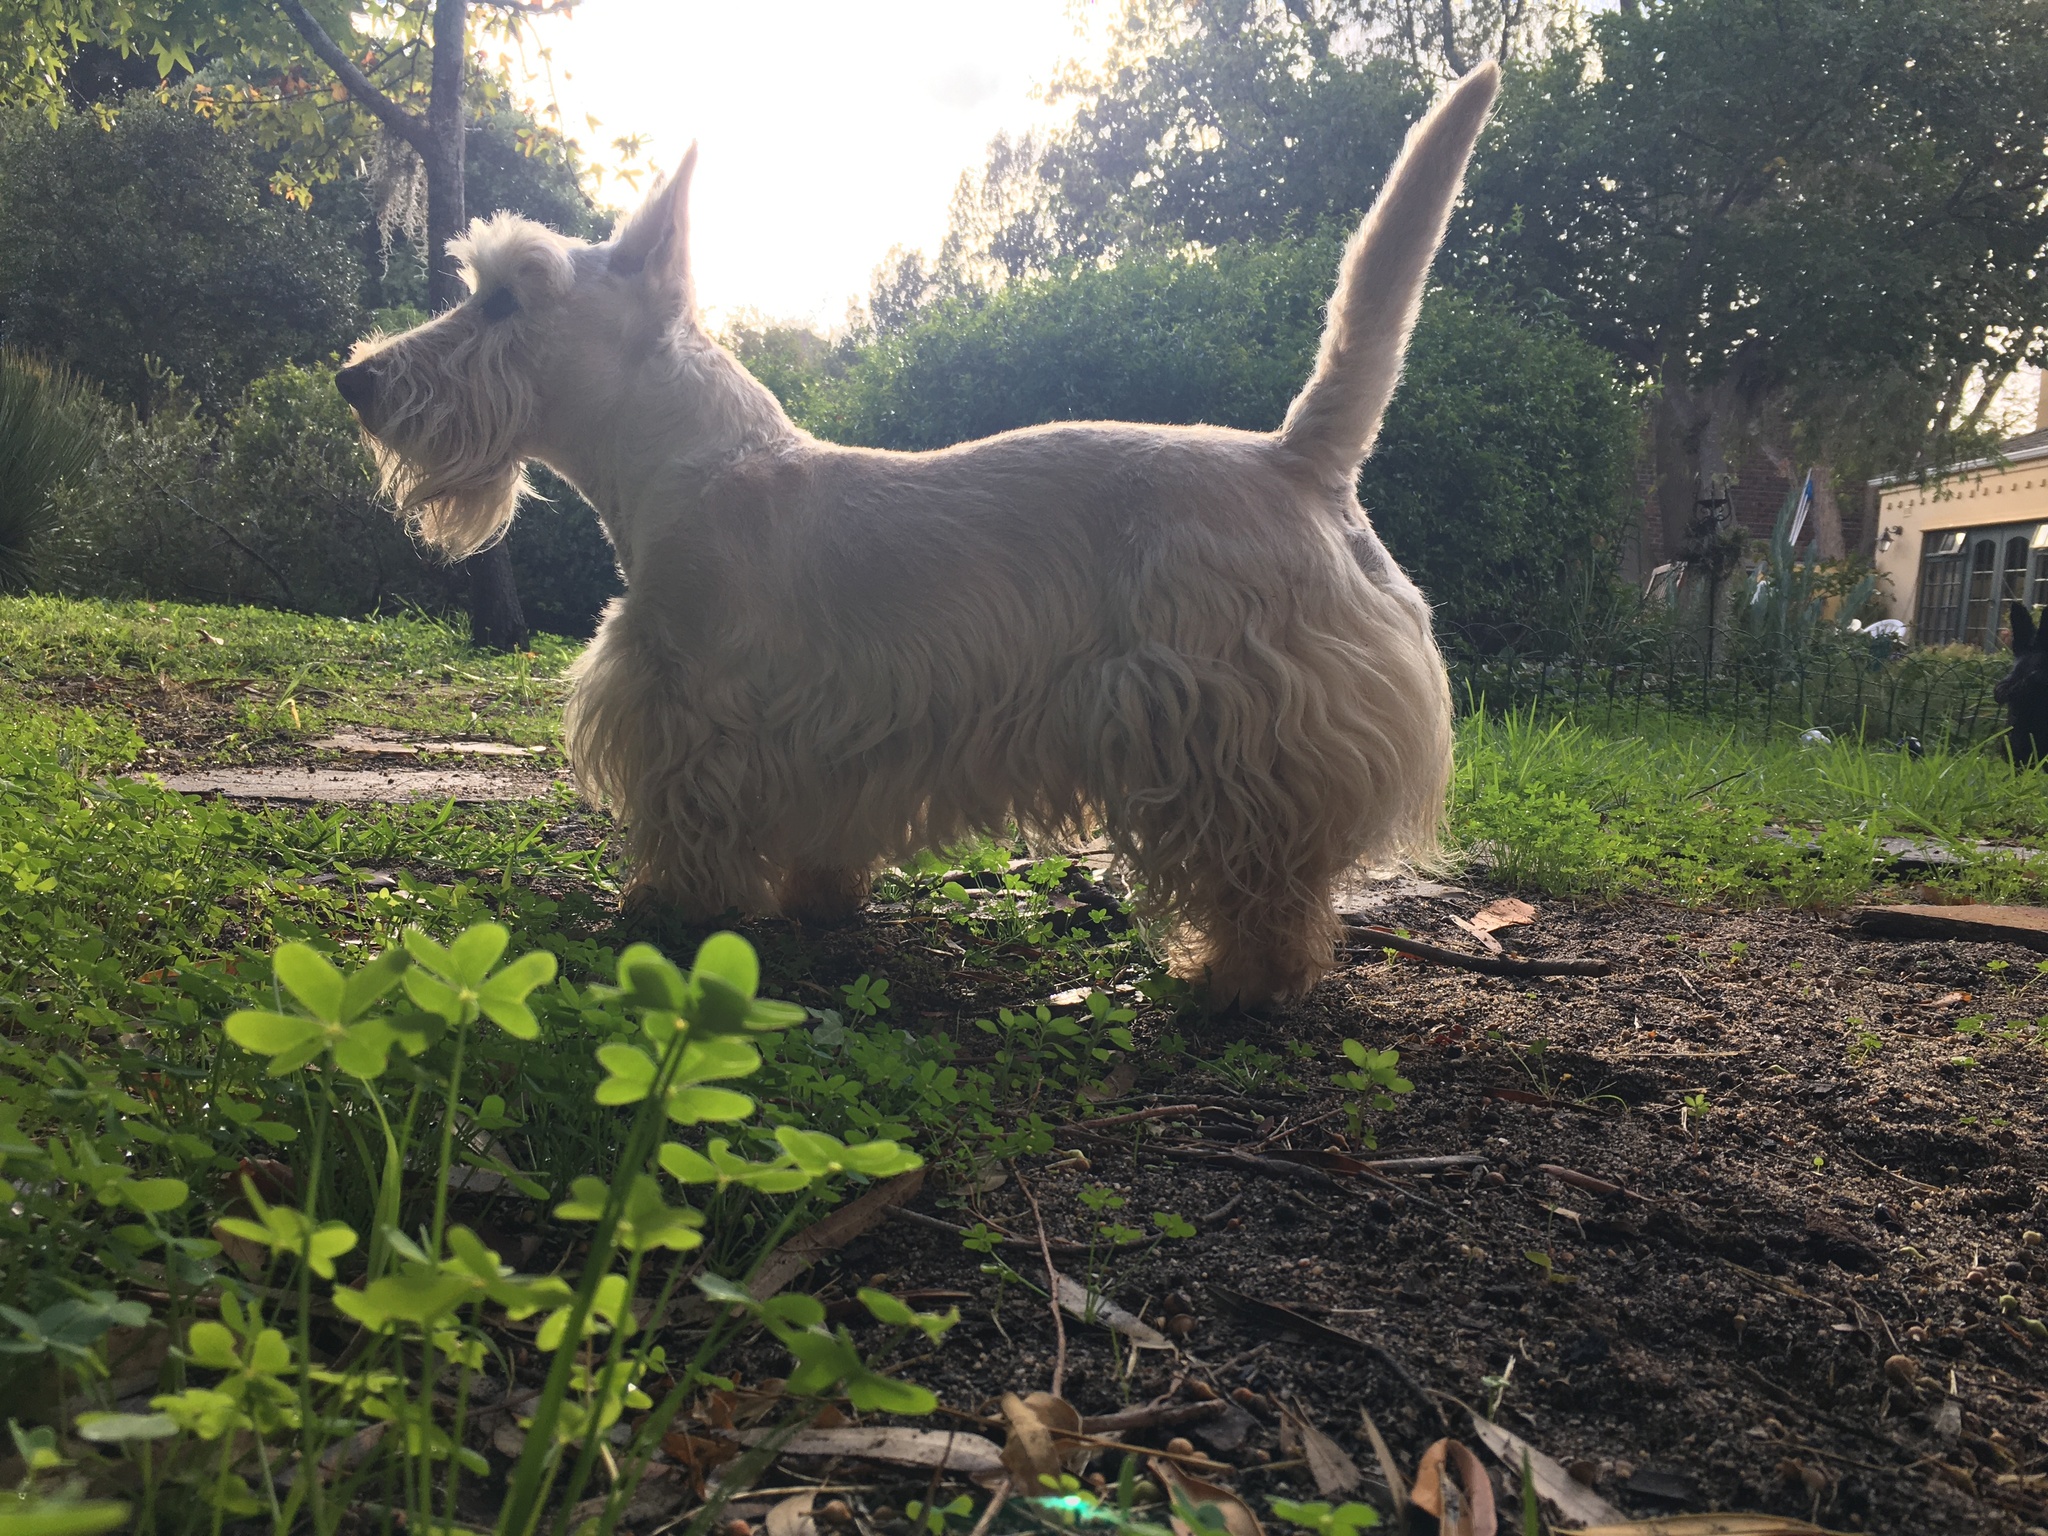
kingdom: Plantae
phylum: Tracheophyta
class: Magnoliopsida
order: Oxalidales
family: Oxalidaceae
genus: Oxalis
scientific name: Oxalis pes-caprae
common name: Bermuda-buttercup
